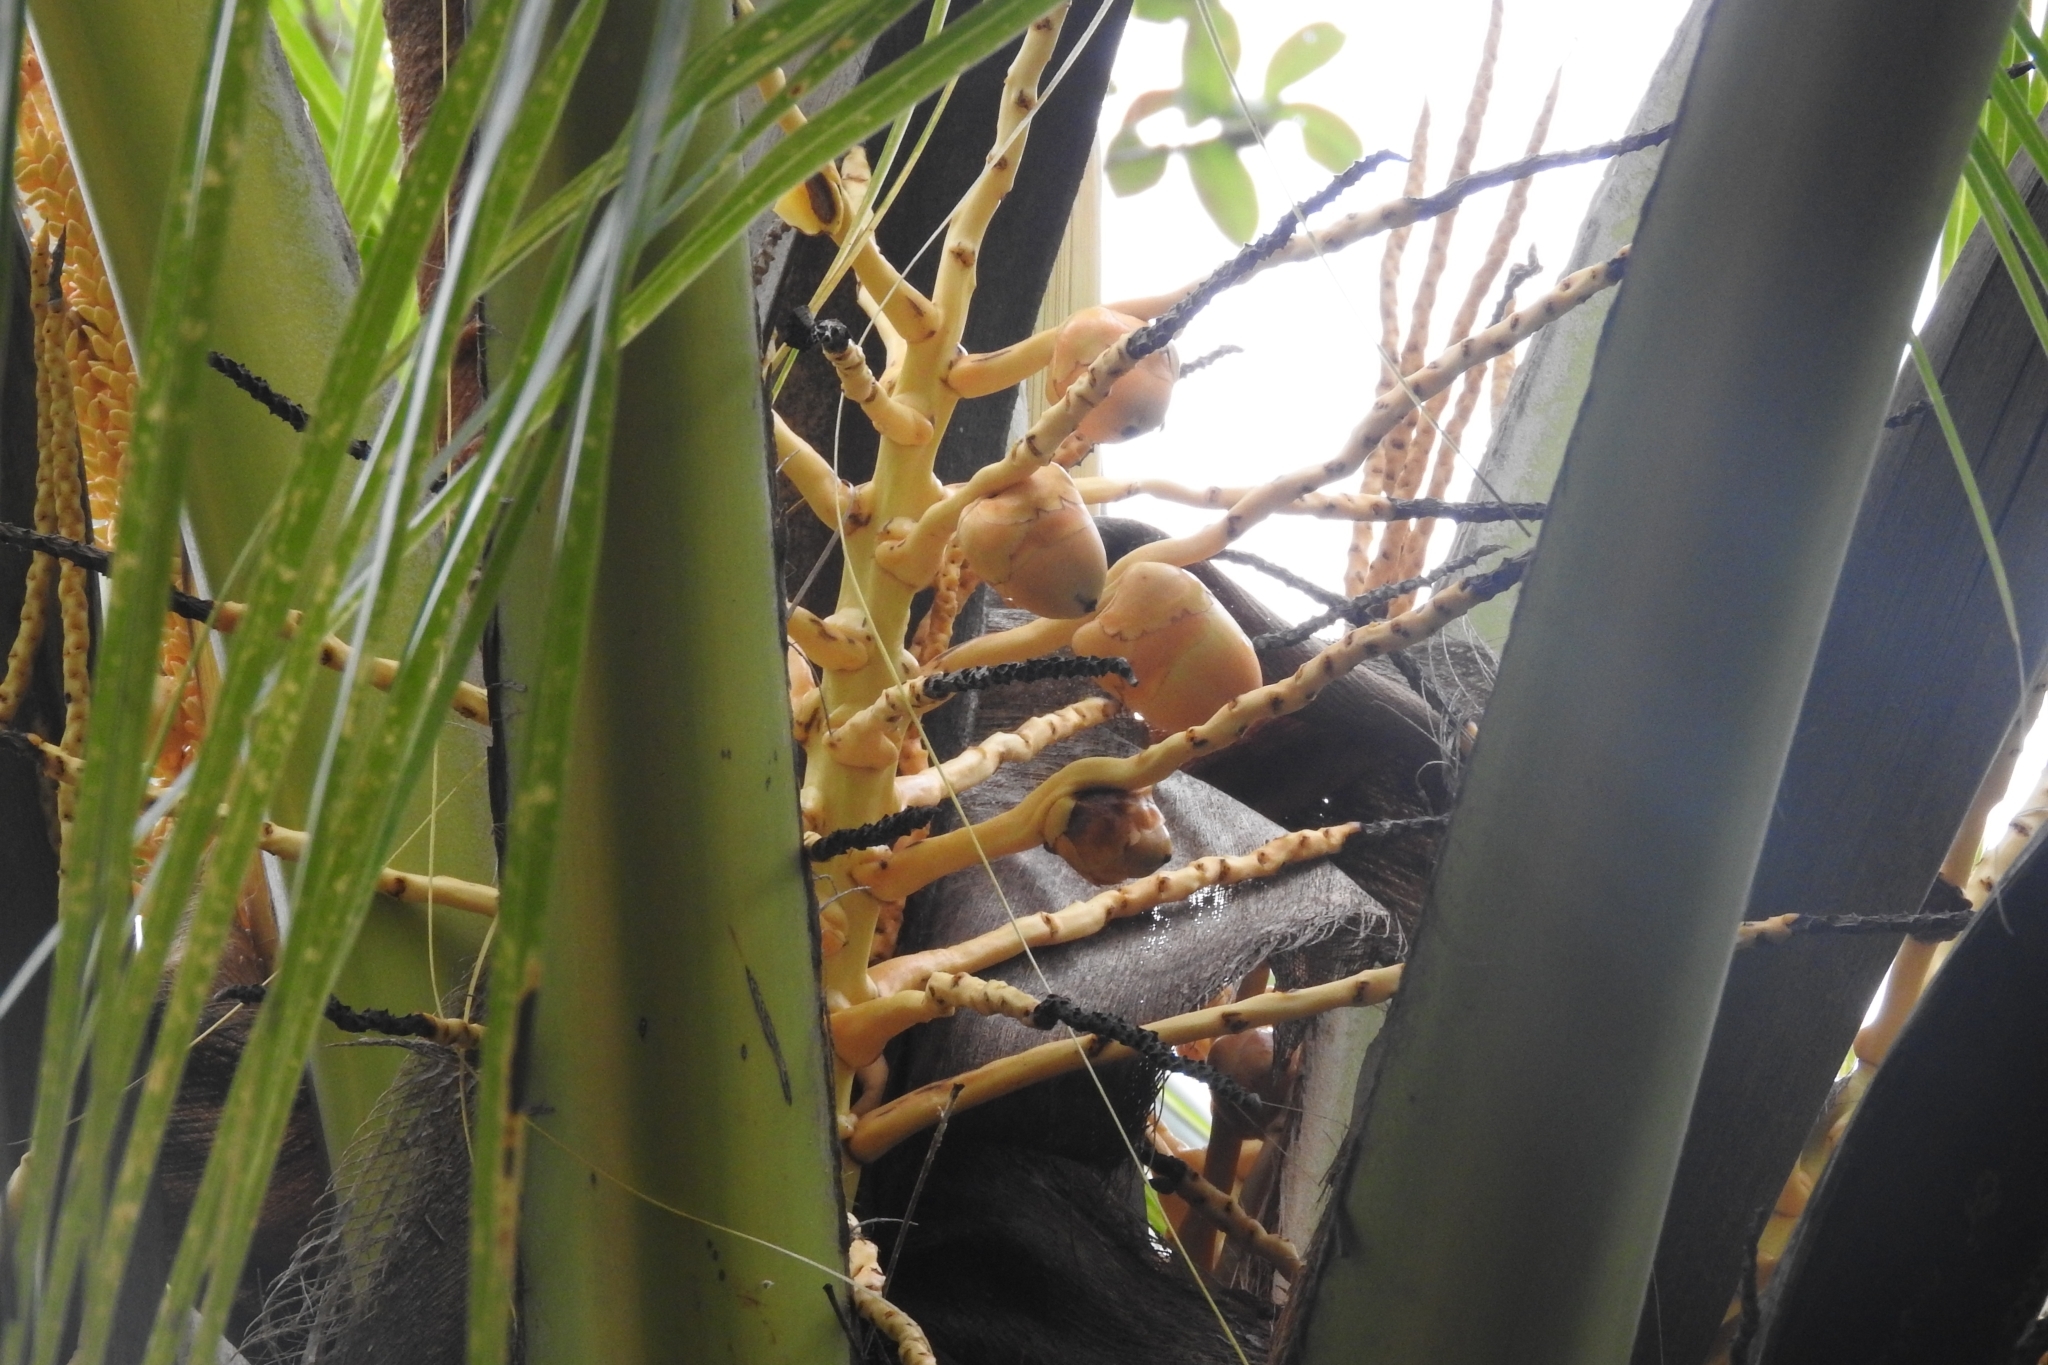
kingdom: Plantae
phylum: Tracheophyta
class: Liliopsida
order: Arecales
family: Arecaceae
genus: Cocos
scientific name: Cocos nucifera
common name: Coconut palm
